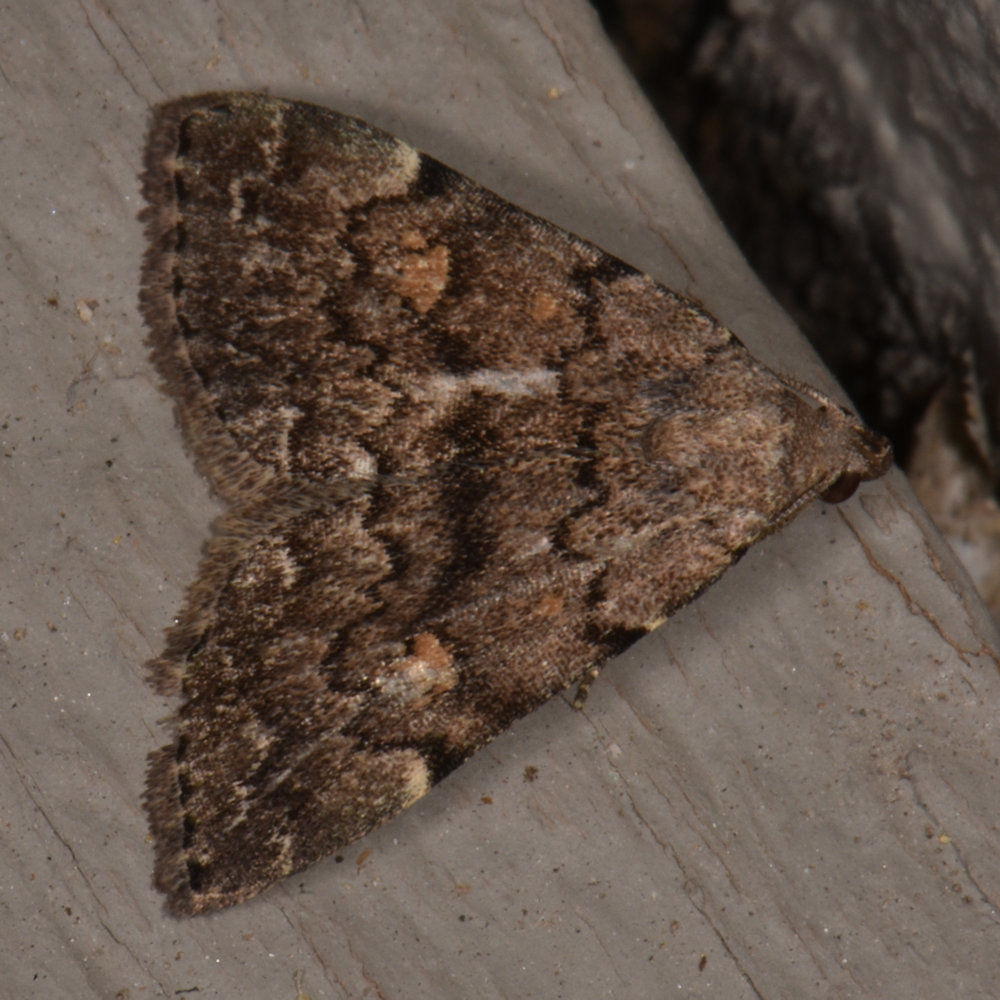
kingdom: Animalia
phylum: Arthropoda
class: Insecta
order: Lepidoptera
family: Erebidae
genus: Idia
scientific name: Idia aemula
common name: Common idia moth
